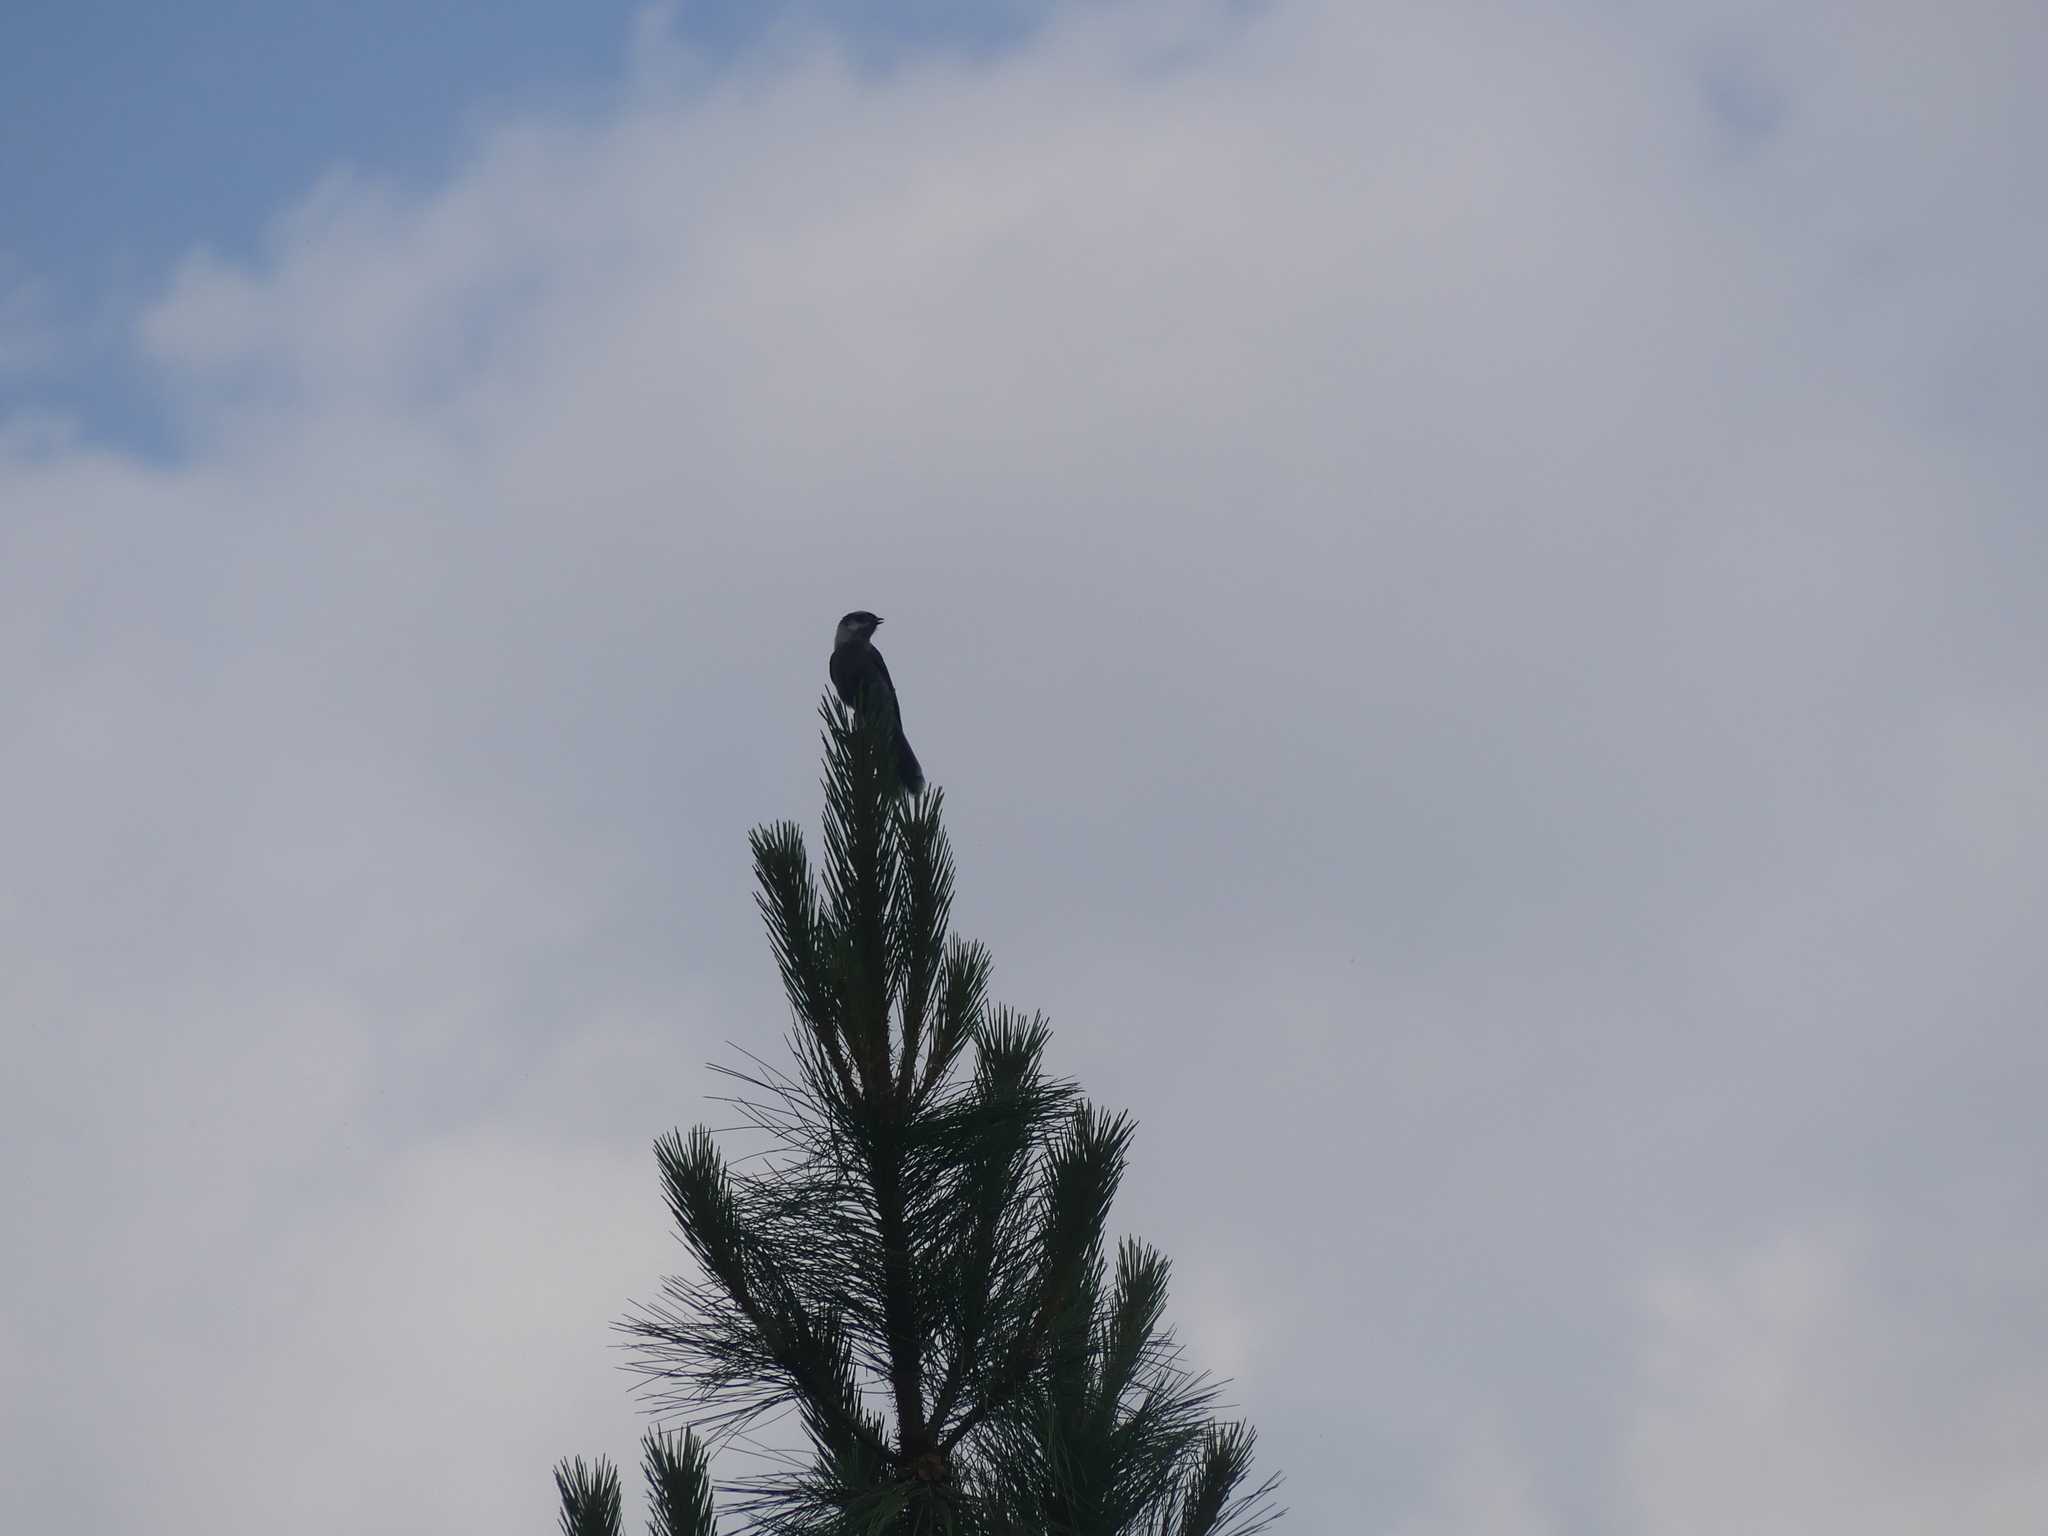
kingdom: Animalia
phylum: Chordata
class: Aves
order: Passeriformes
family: Corvidae
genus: Perisoreus
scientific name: Perisoreus canadensis
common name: Gray jay
